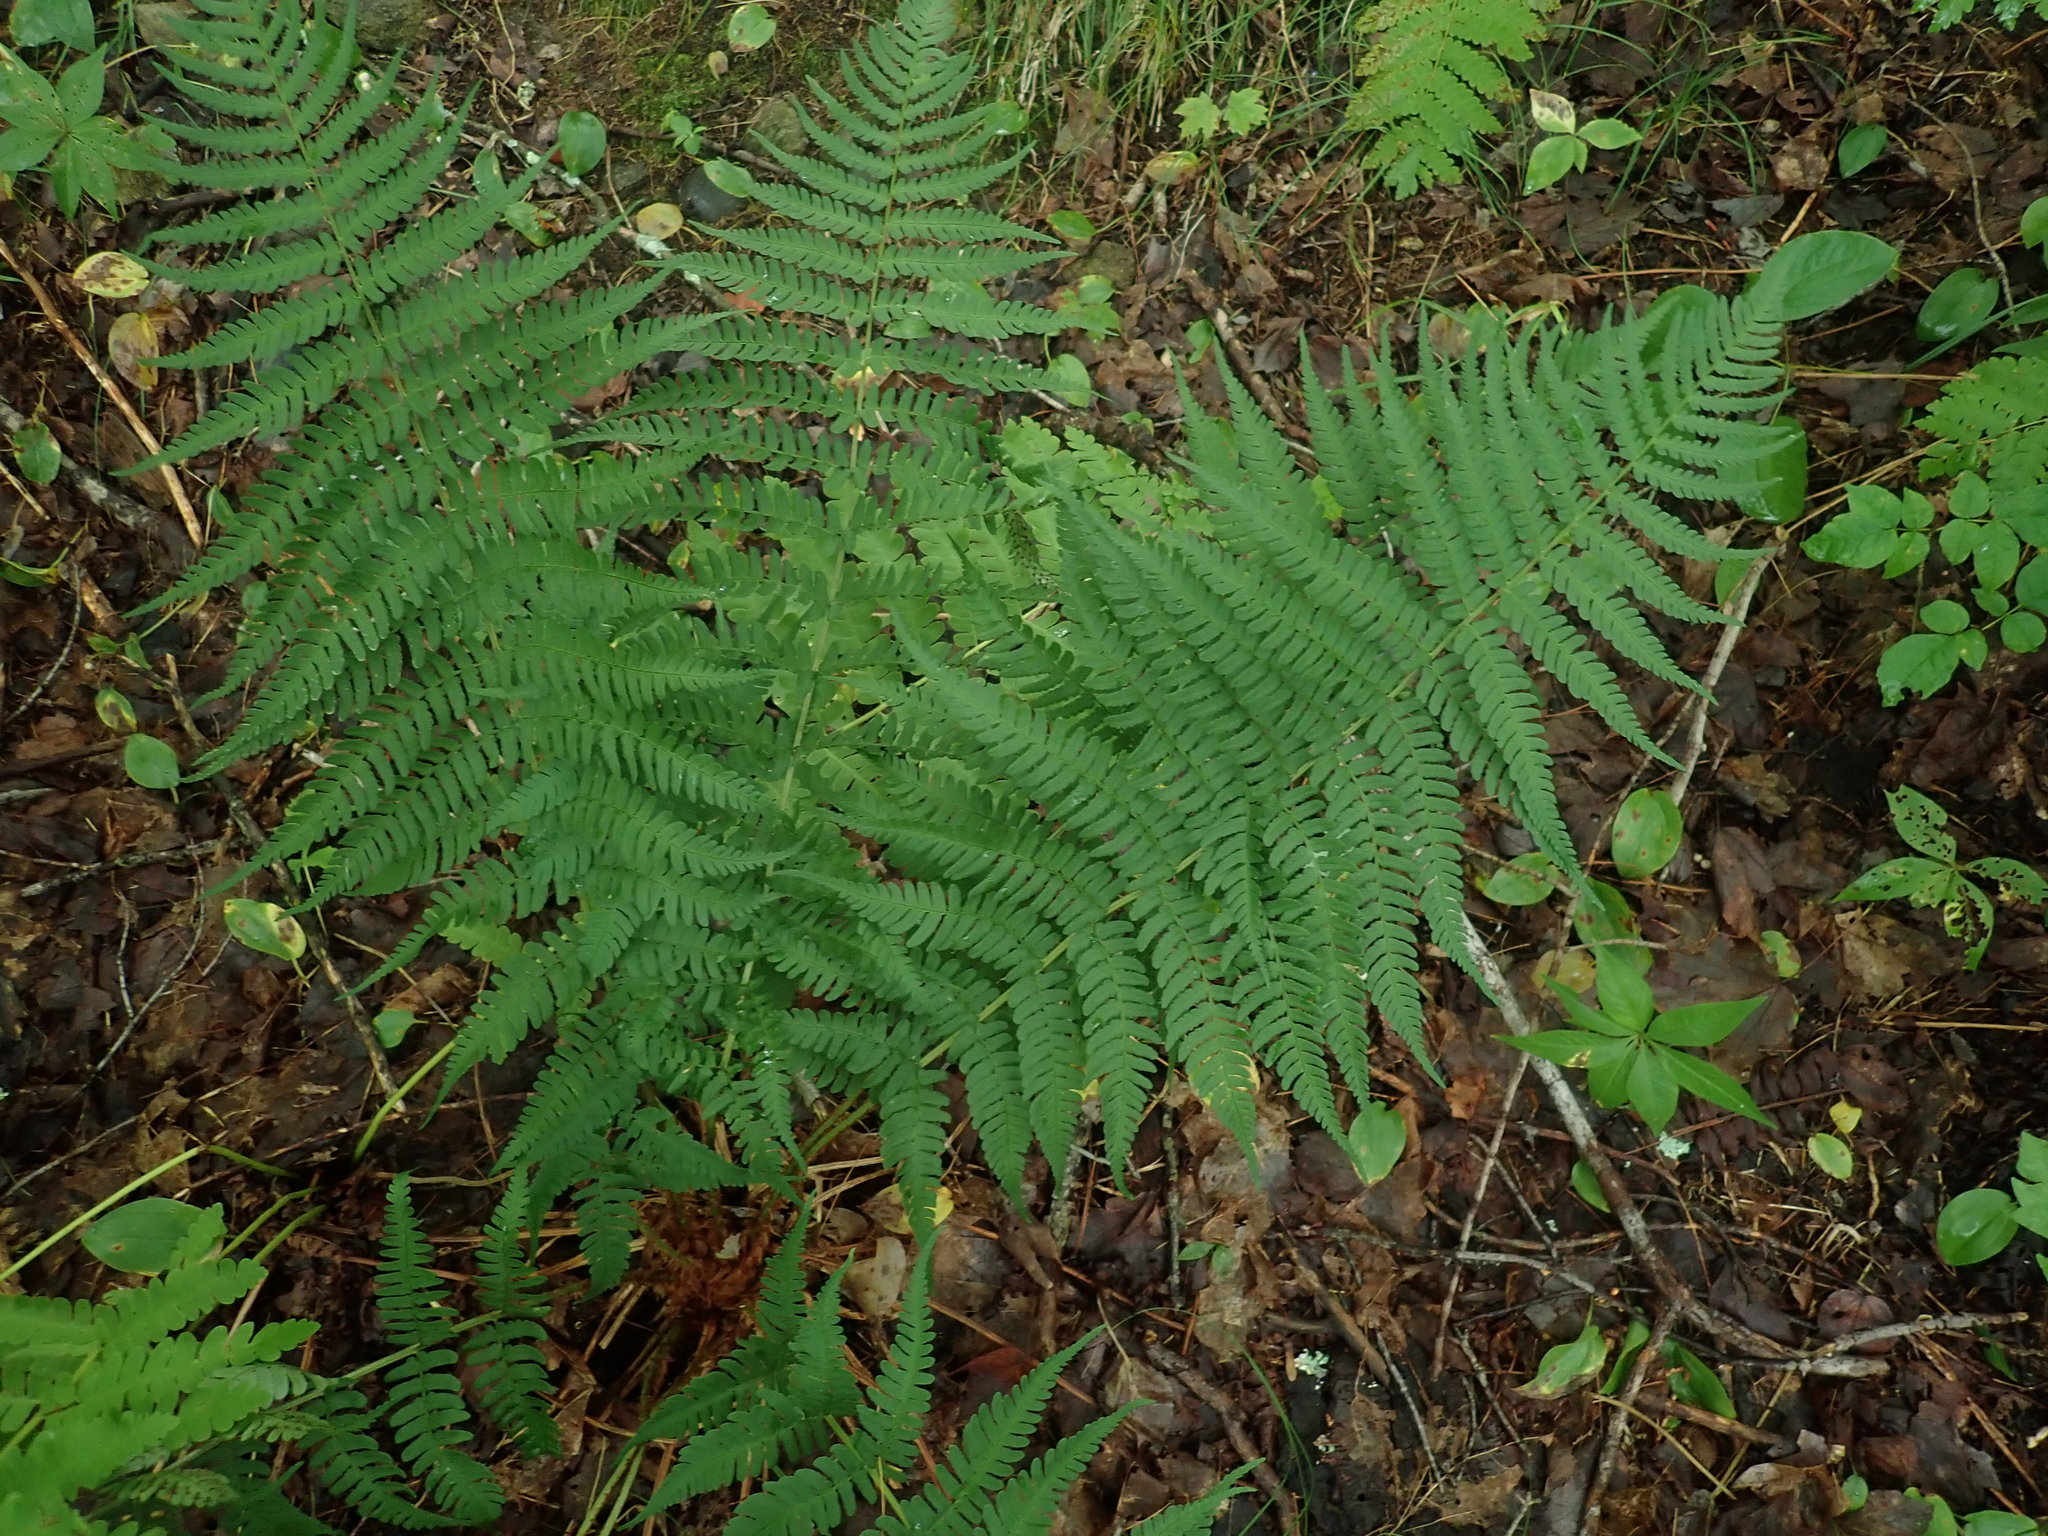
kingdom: Plantae
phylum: Tracheophyta
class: Polypodiopsida
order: Polypodiales
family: Dryopteridaceae
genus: Dryopteris
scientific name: Dryopteris marginalis
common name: Marginal wood fern
